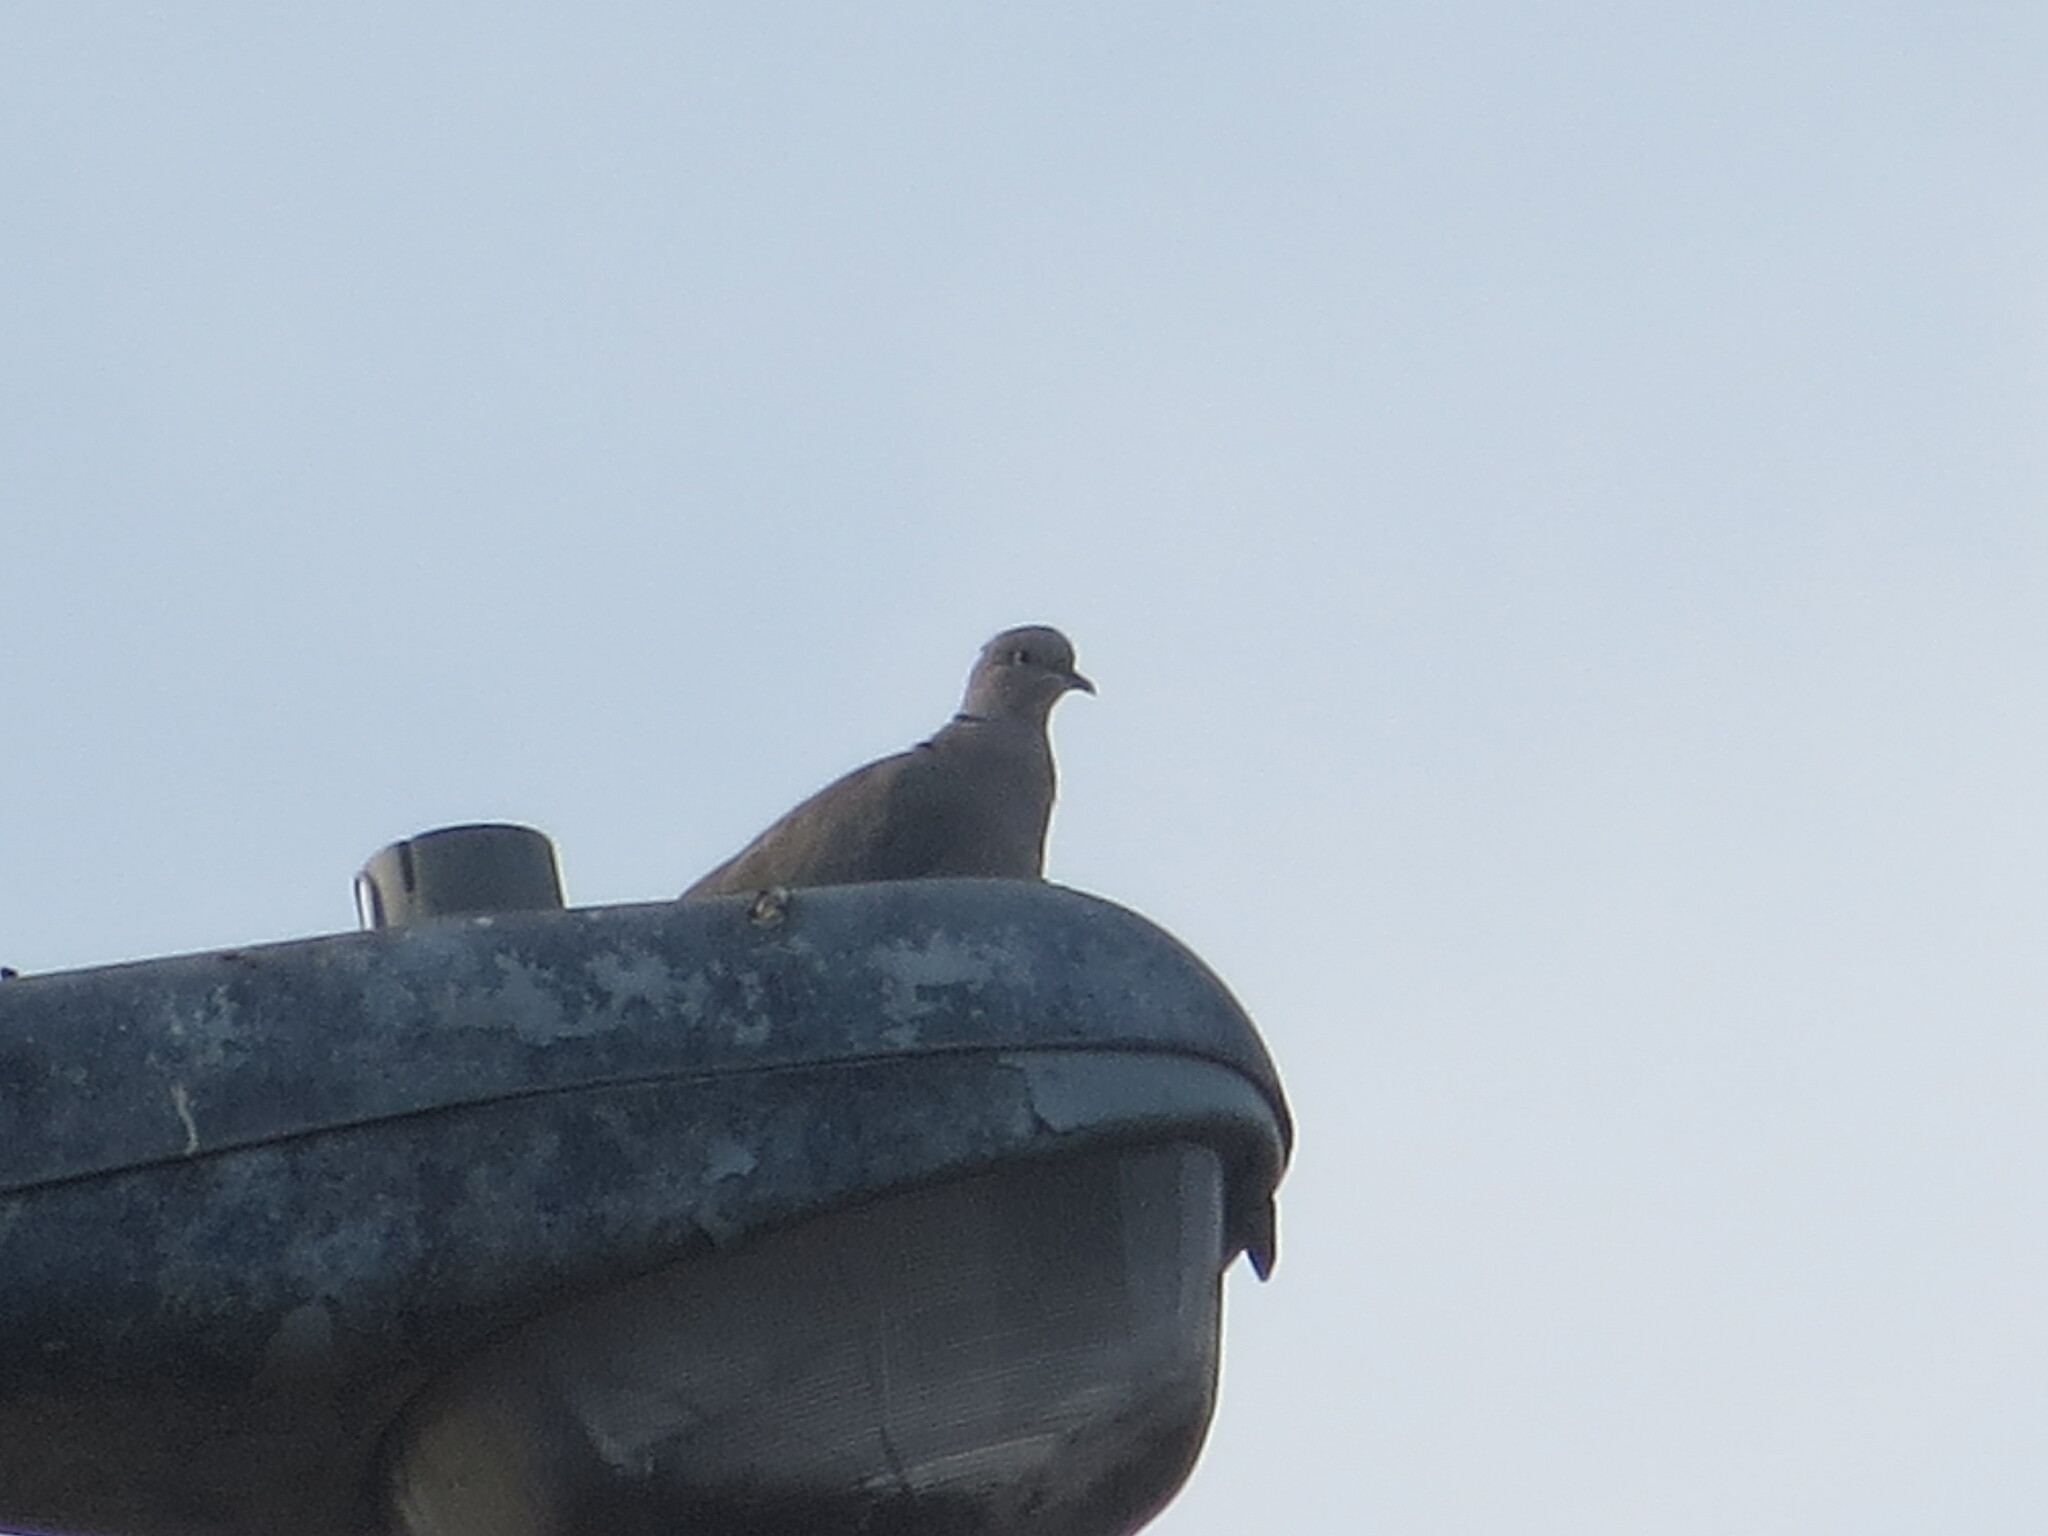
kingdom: Animalia
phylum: Chordata
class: Aves
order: Columbiformes
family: Columbidae
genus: Streptopelia
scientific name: Streptopelia decaocto
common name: Eurasian collared dove
